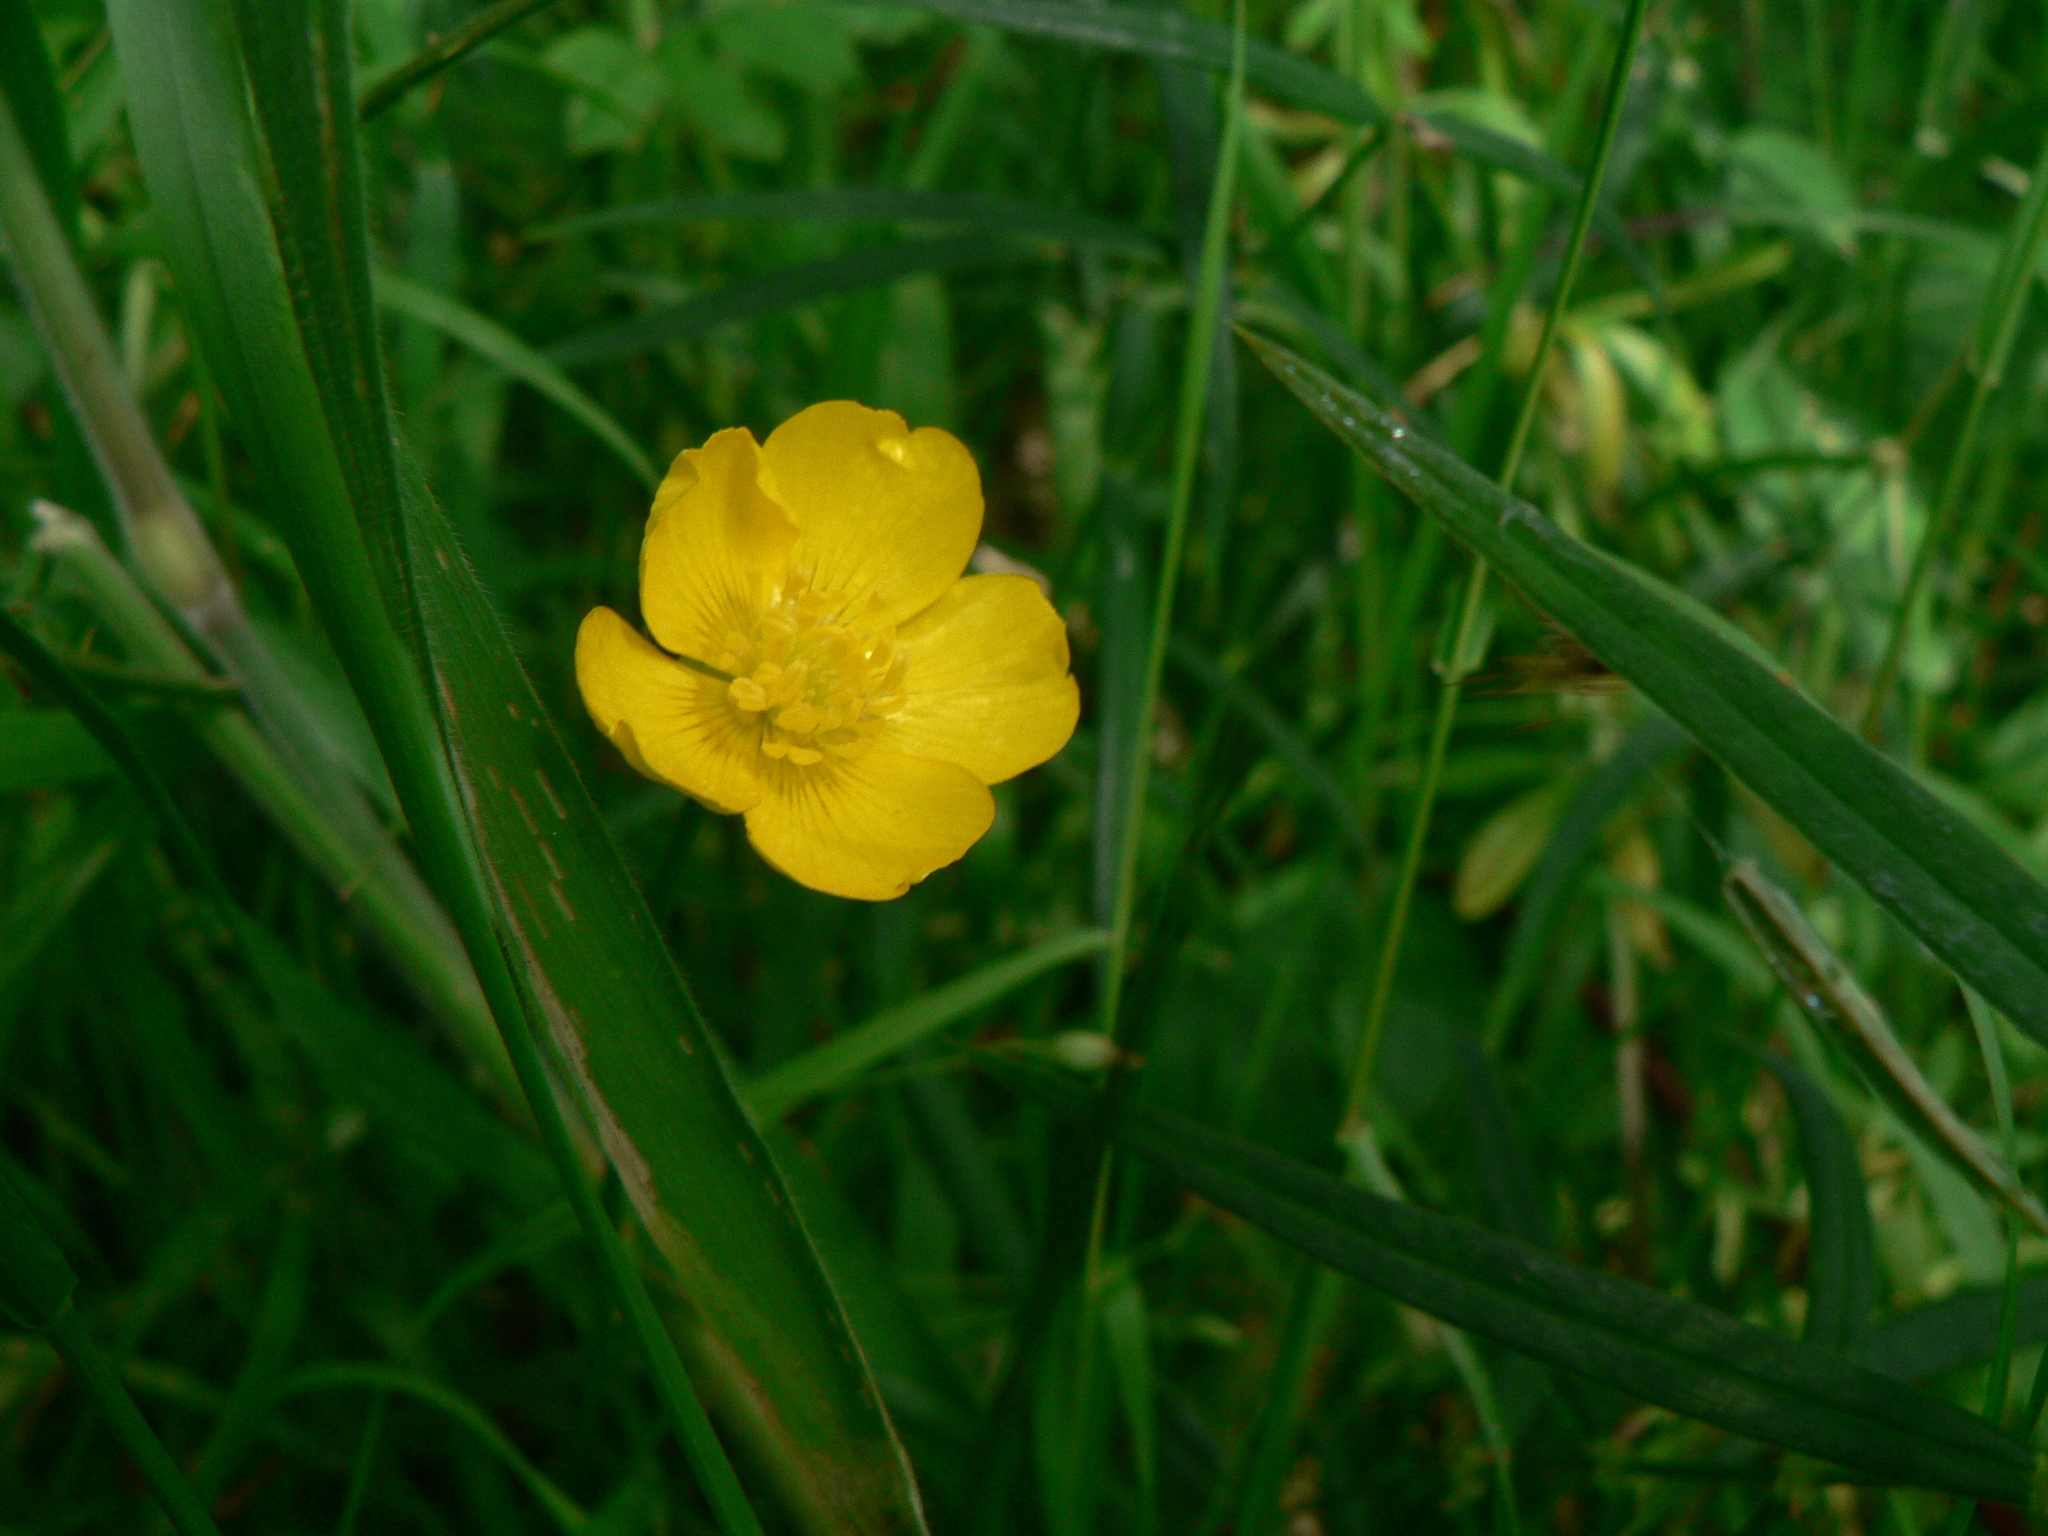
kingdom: Plantae
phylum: Tracheophyta
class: Magnoliopsida
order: Ranunculales
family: Ranunculaceae
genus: Ranunculus
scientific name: Ranunculus
